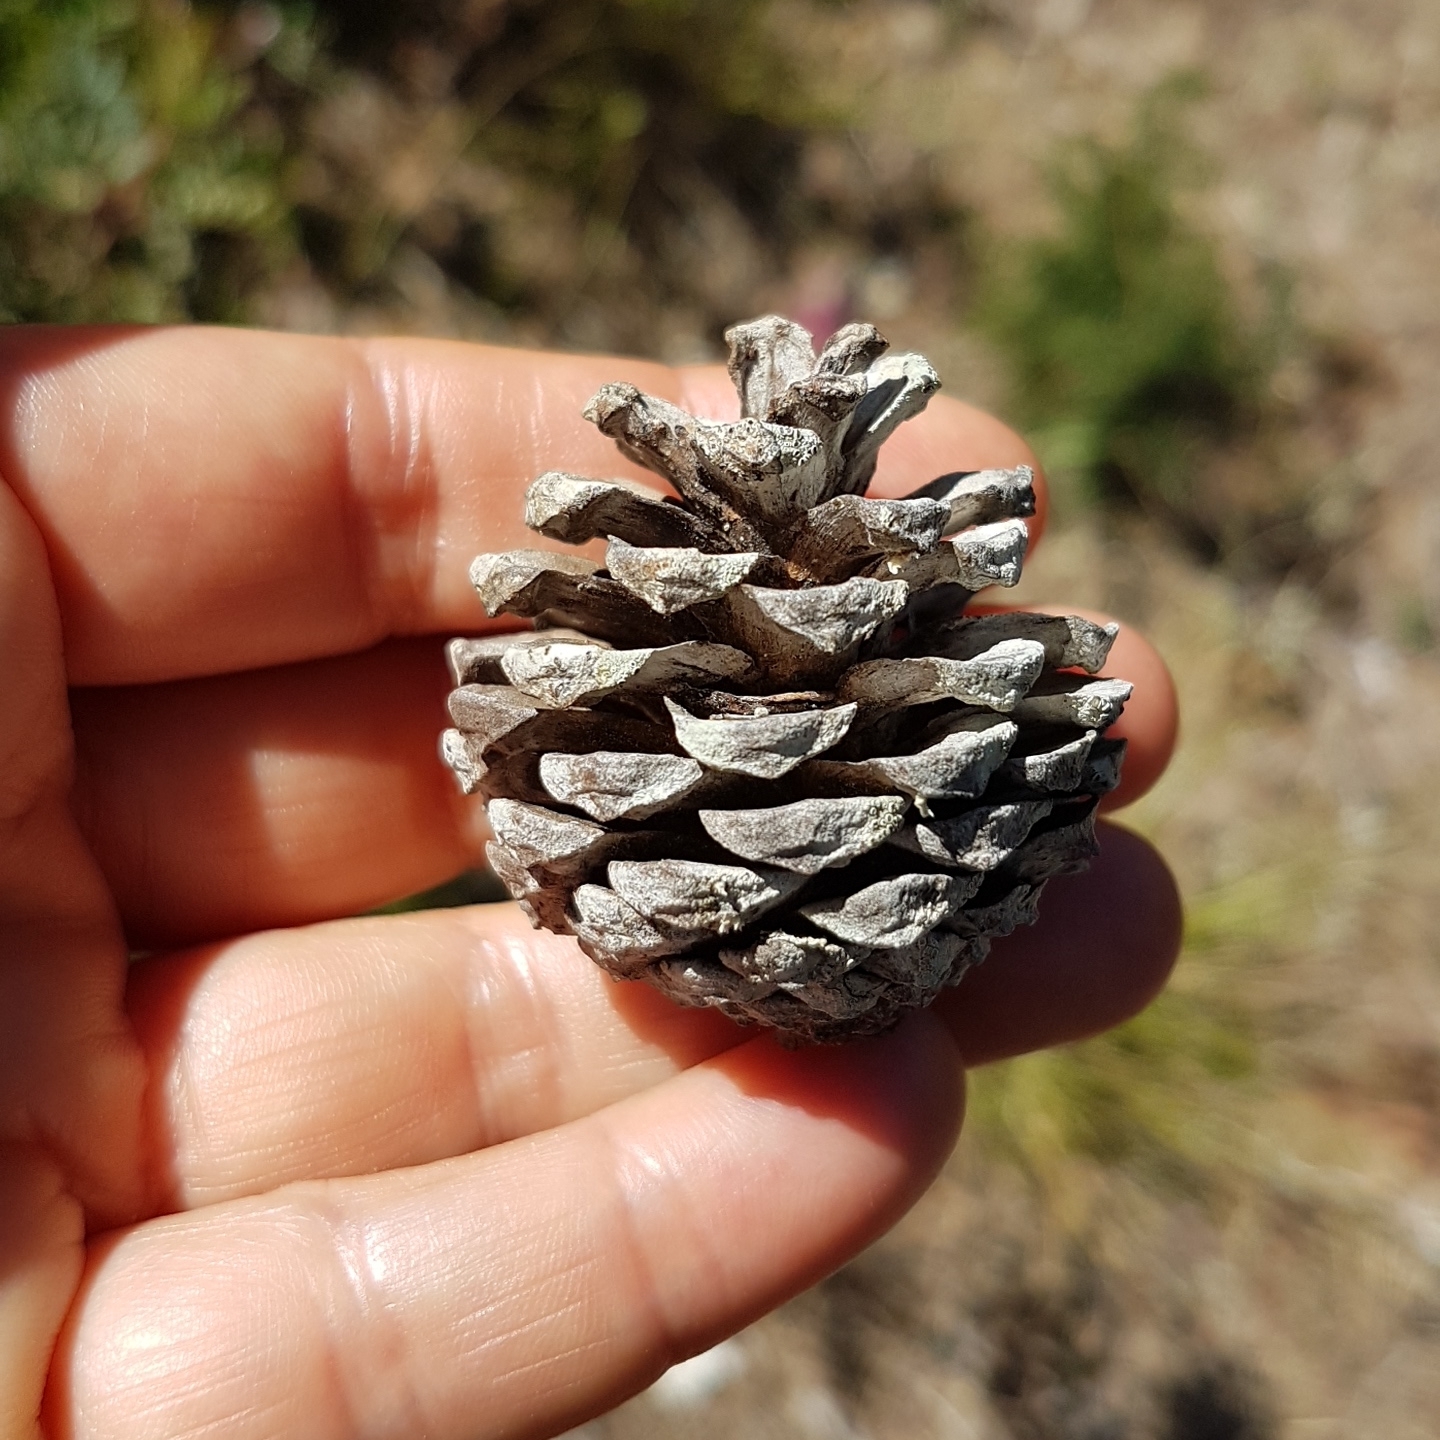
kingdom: Plantae
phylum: Tracheophyta
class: Pinopsida
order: Pinales
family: Pinaceae
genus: Pinus
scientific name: Pinus halepensis
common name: Aleppo pine
